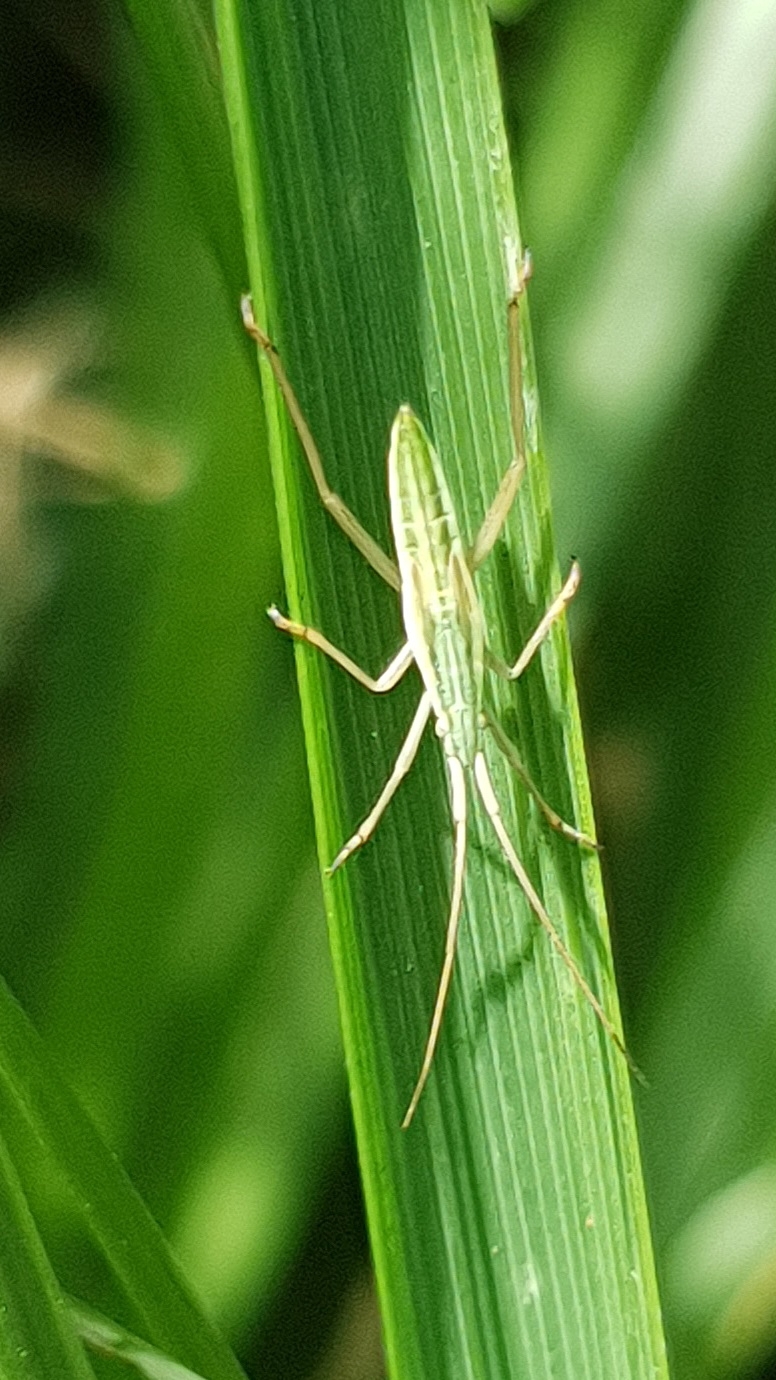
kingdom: Animalia
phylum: Arthropoda
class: Insecta
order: Hemiptera
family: Miridae
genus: Notostira
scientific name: Notostira elongata
